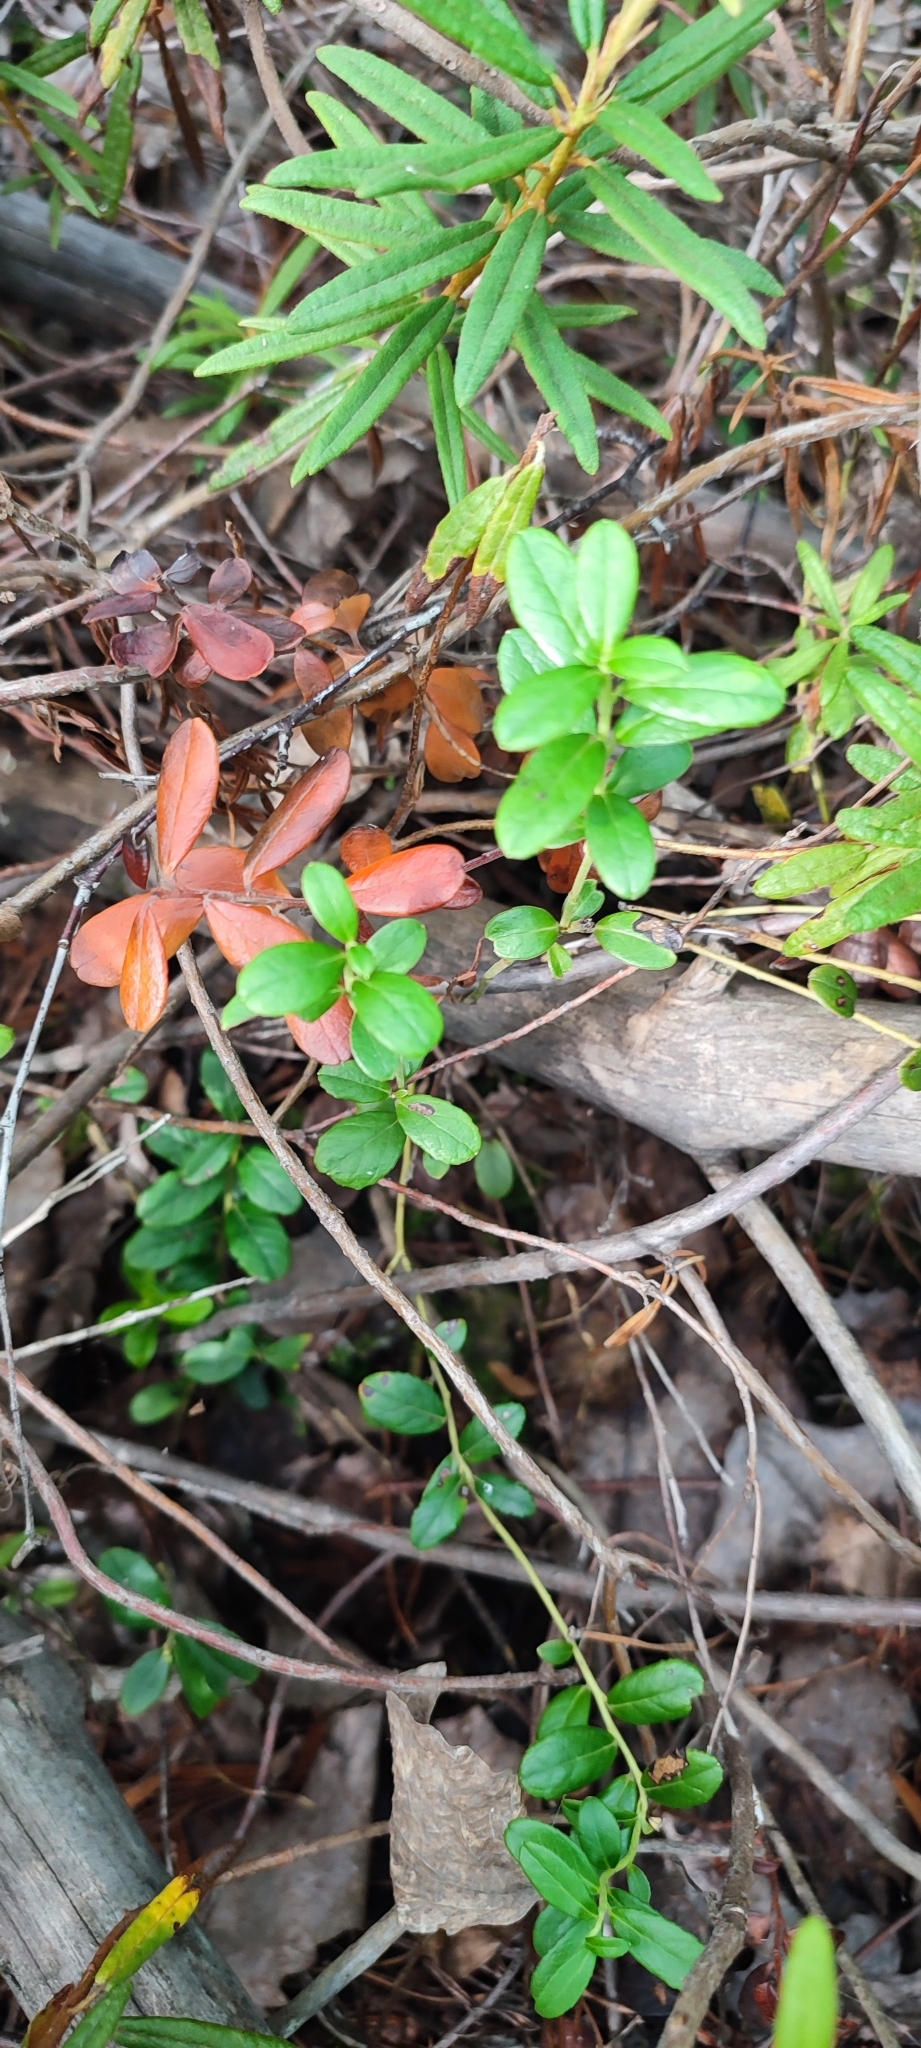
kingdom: Plantae
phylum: Tracheophyta
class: Magnoliopsida
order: Ericales
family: Ericaceae
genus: Vaccinium
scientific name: Vaccinium vitis-idaea
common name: Cowberry
